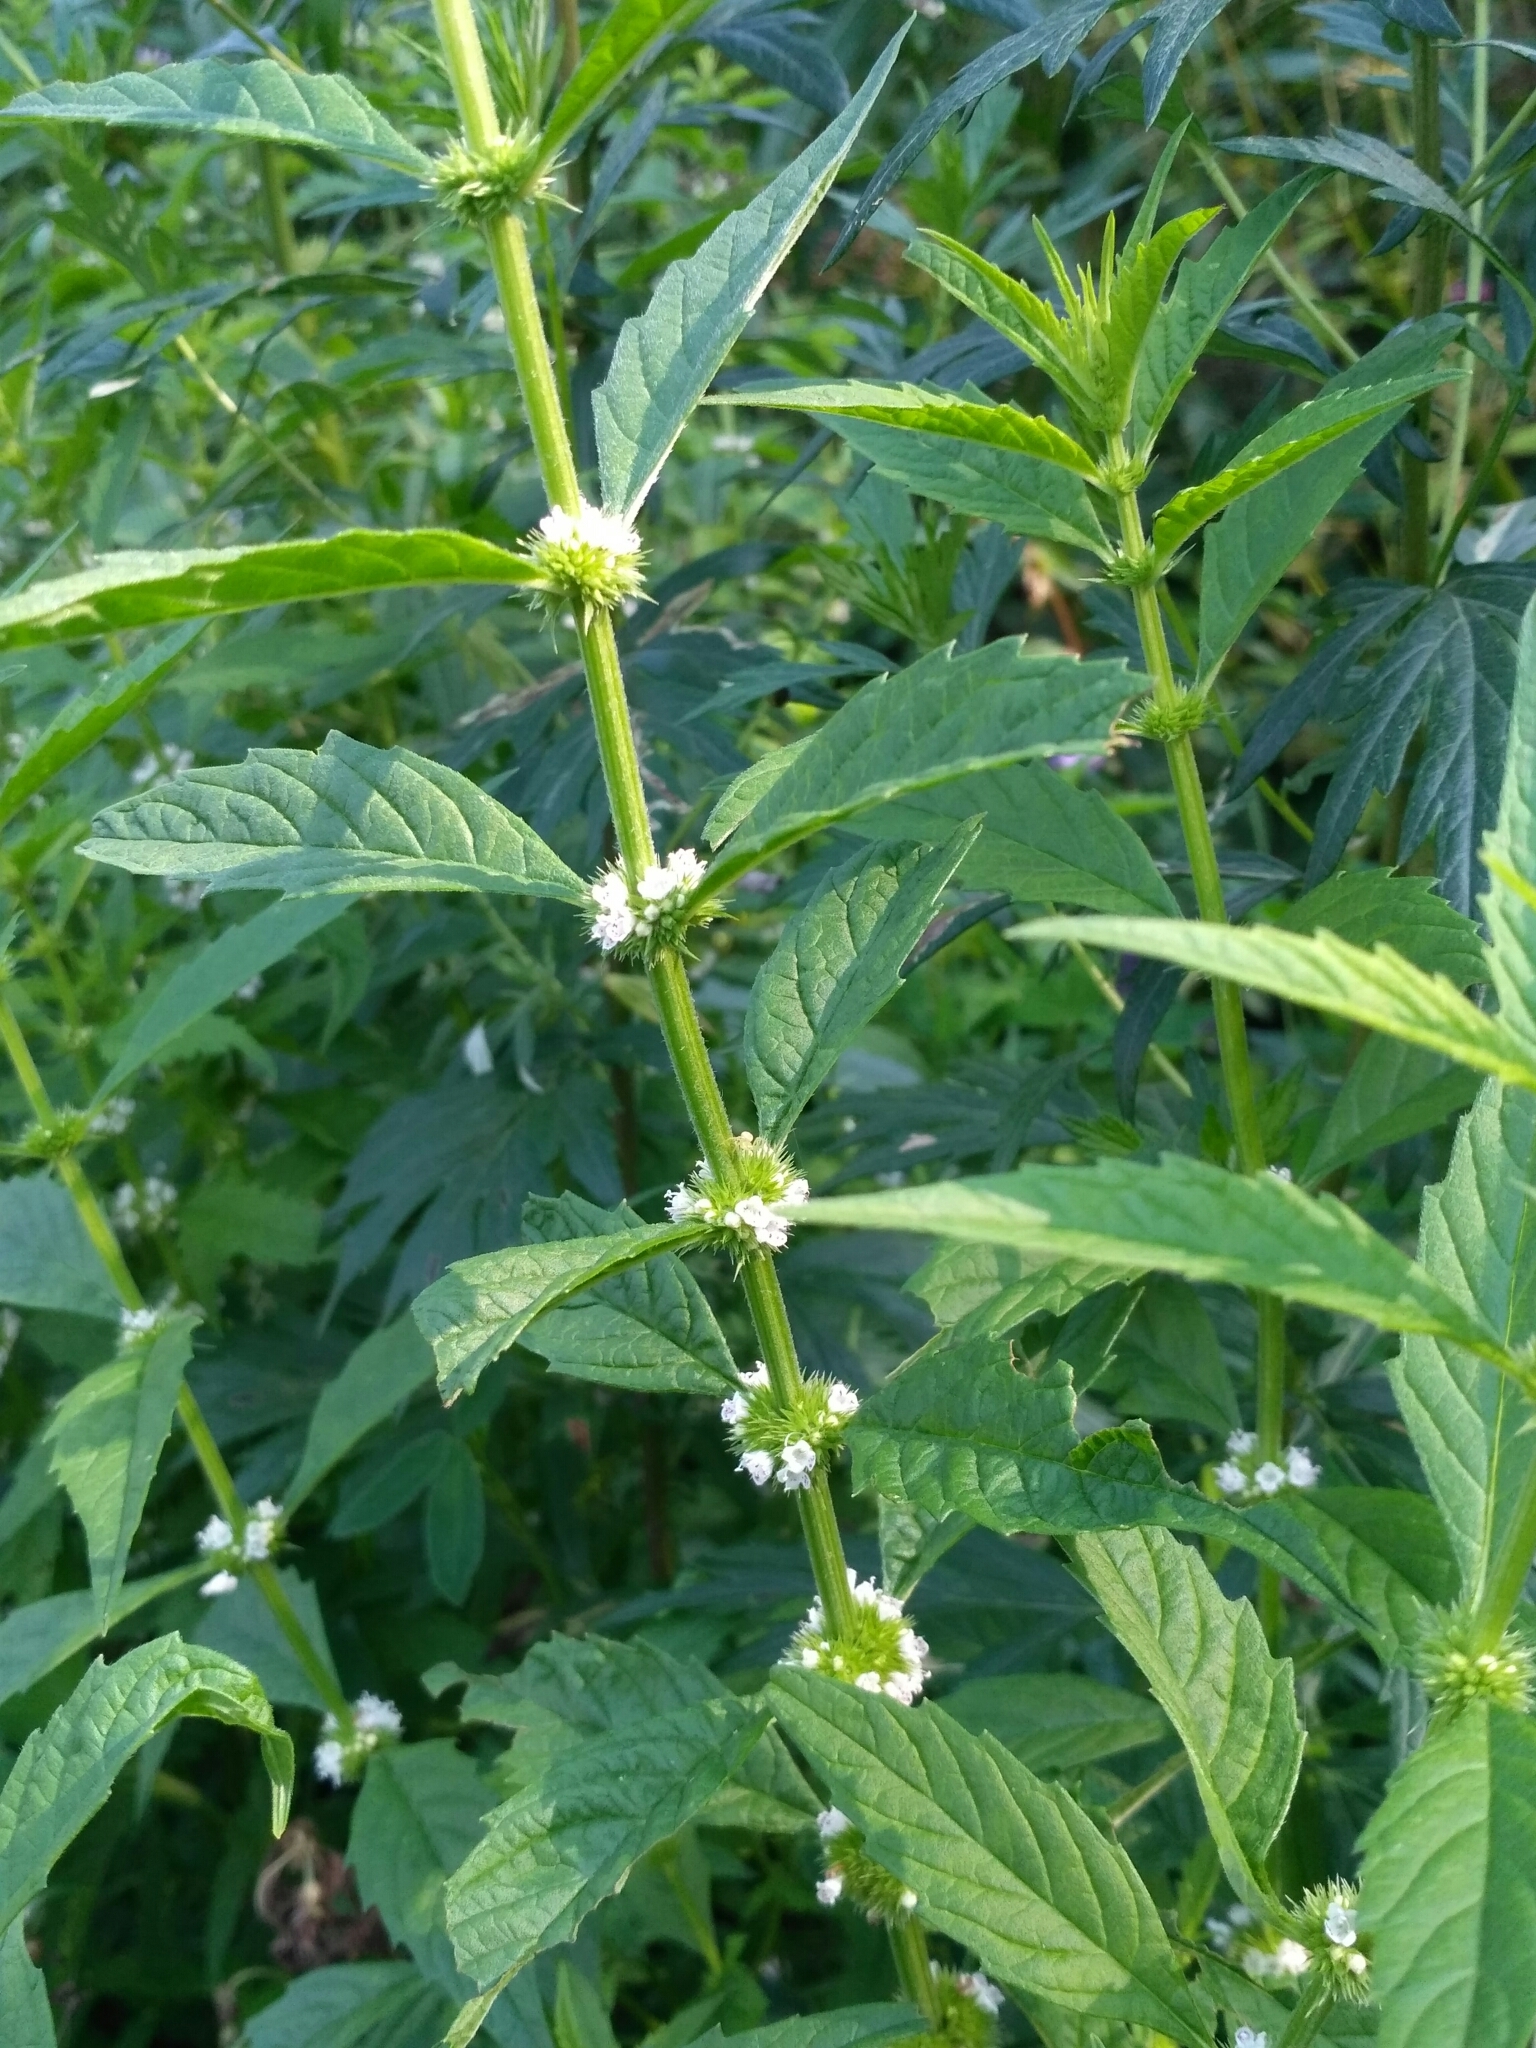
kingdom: Plantae
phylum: Tracheophyta
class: Magnoliopsida
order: Lamiales
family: Lamiaceae
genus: Lycopus
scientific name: Lycopus europaeus
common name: European bugleweed
